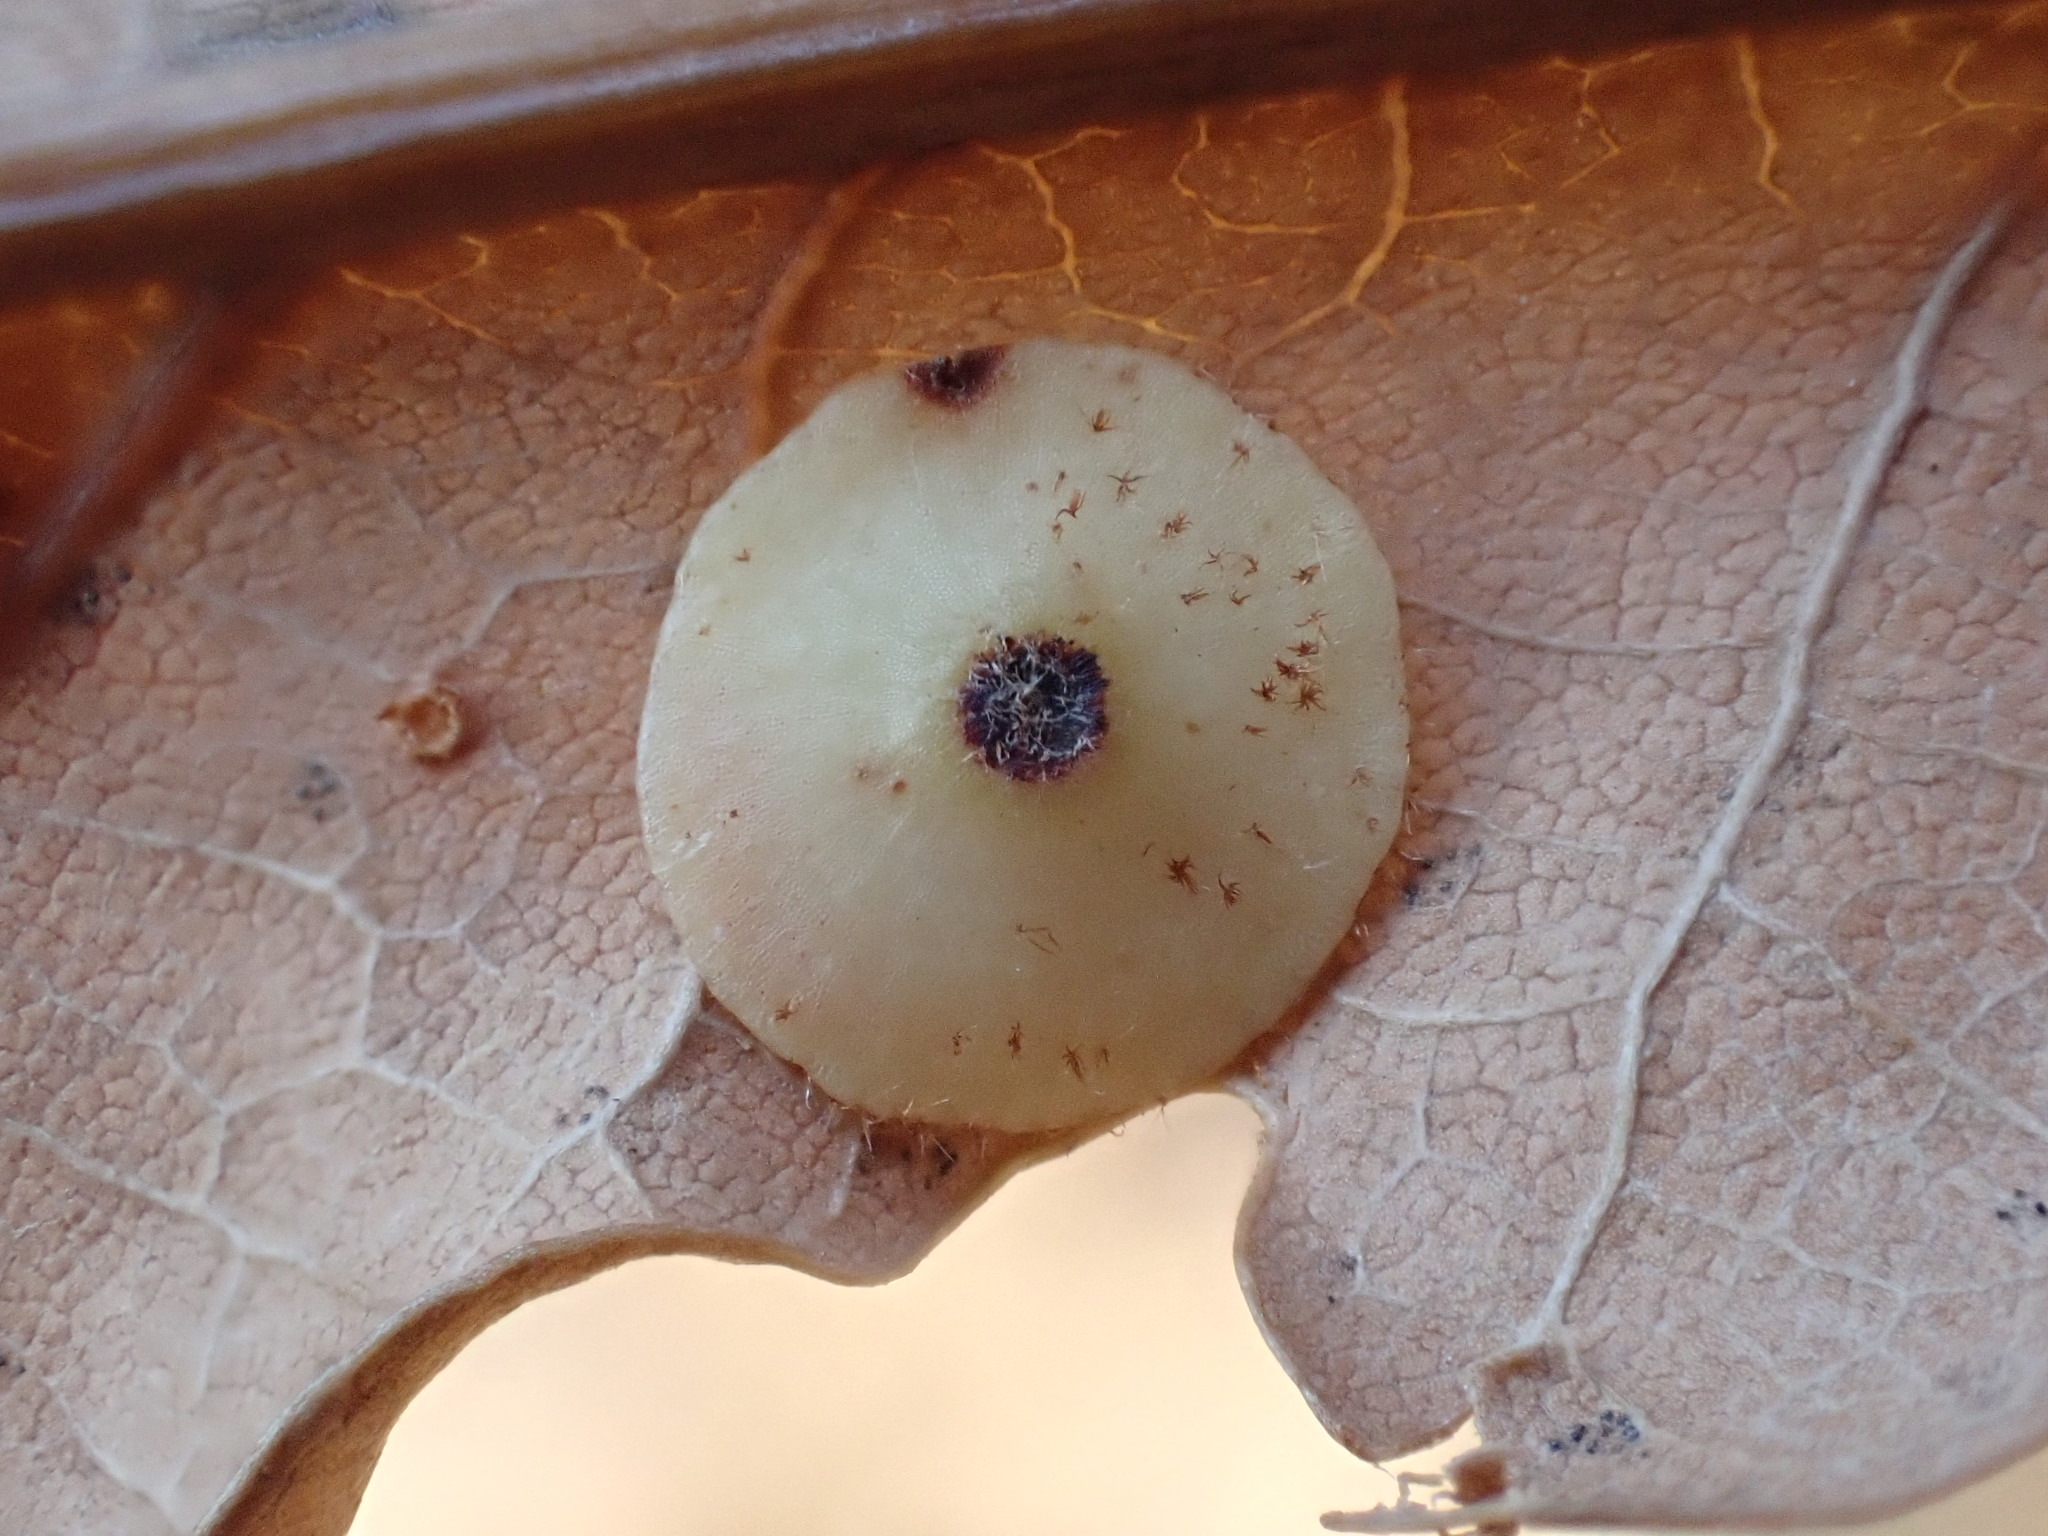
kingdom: Animalia
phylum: Arthropoda
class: Insecta
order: Hymenoptera
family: Cynipidae
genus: Neuroterus
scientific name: Neuroterus quercusbaccarum
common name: Common spangle gall
